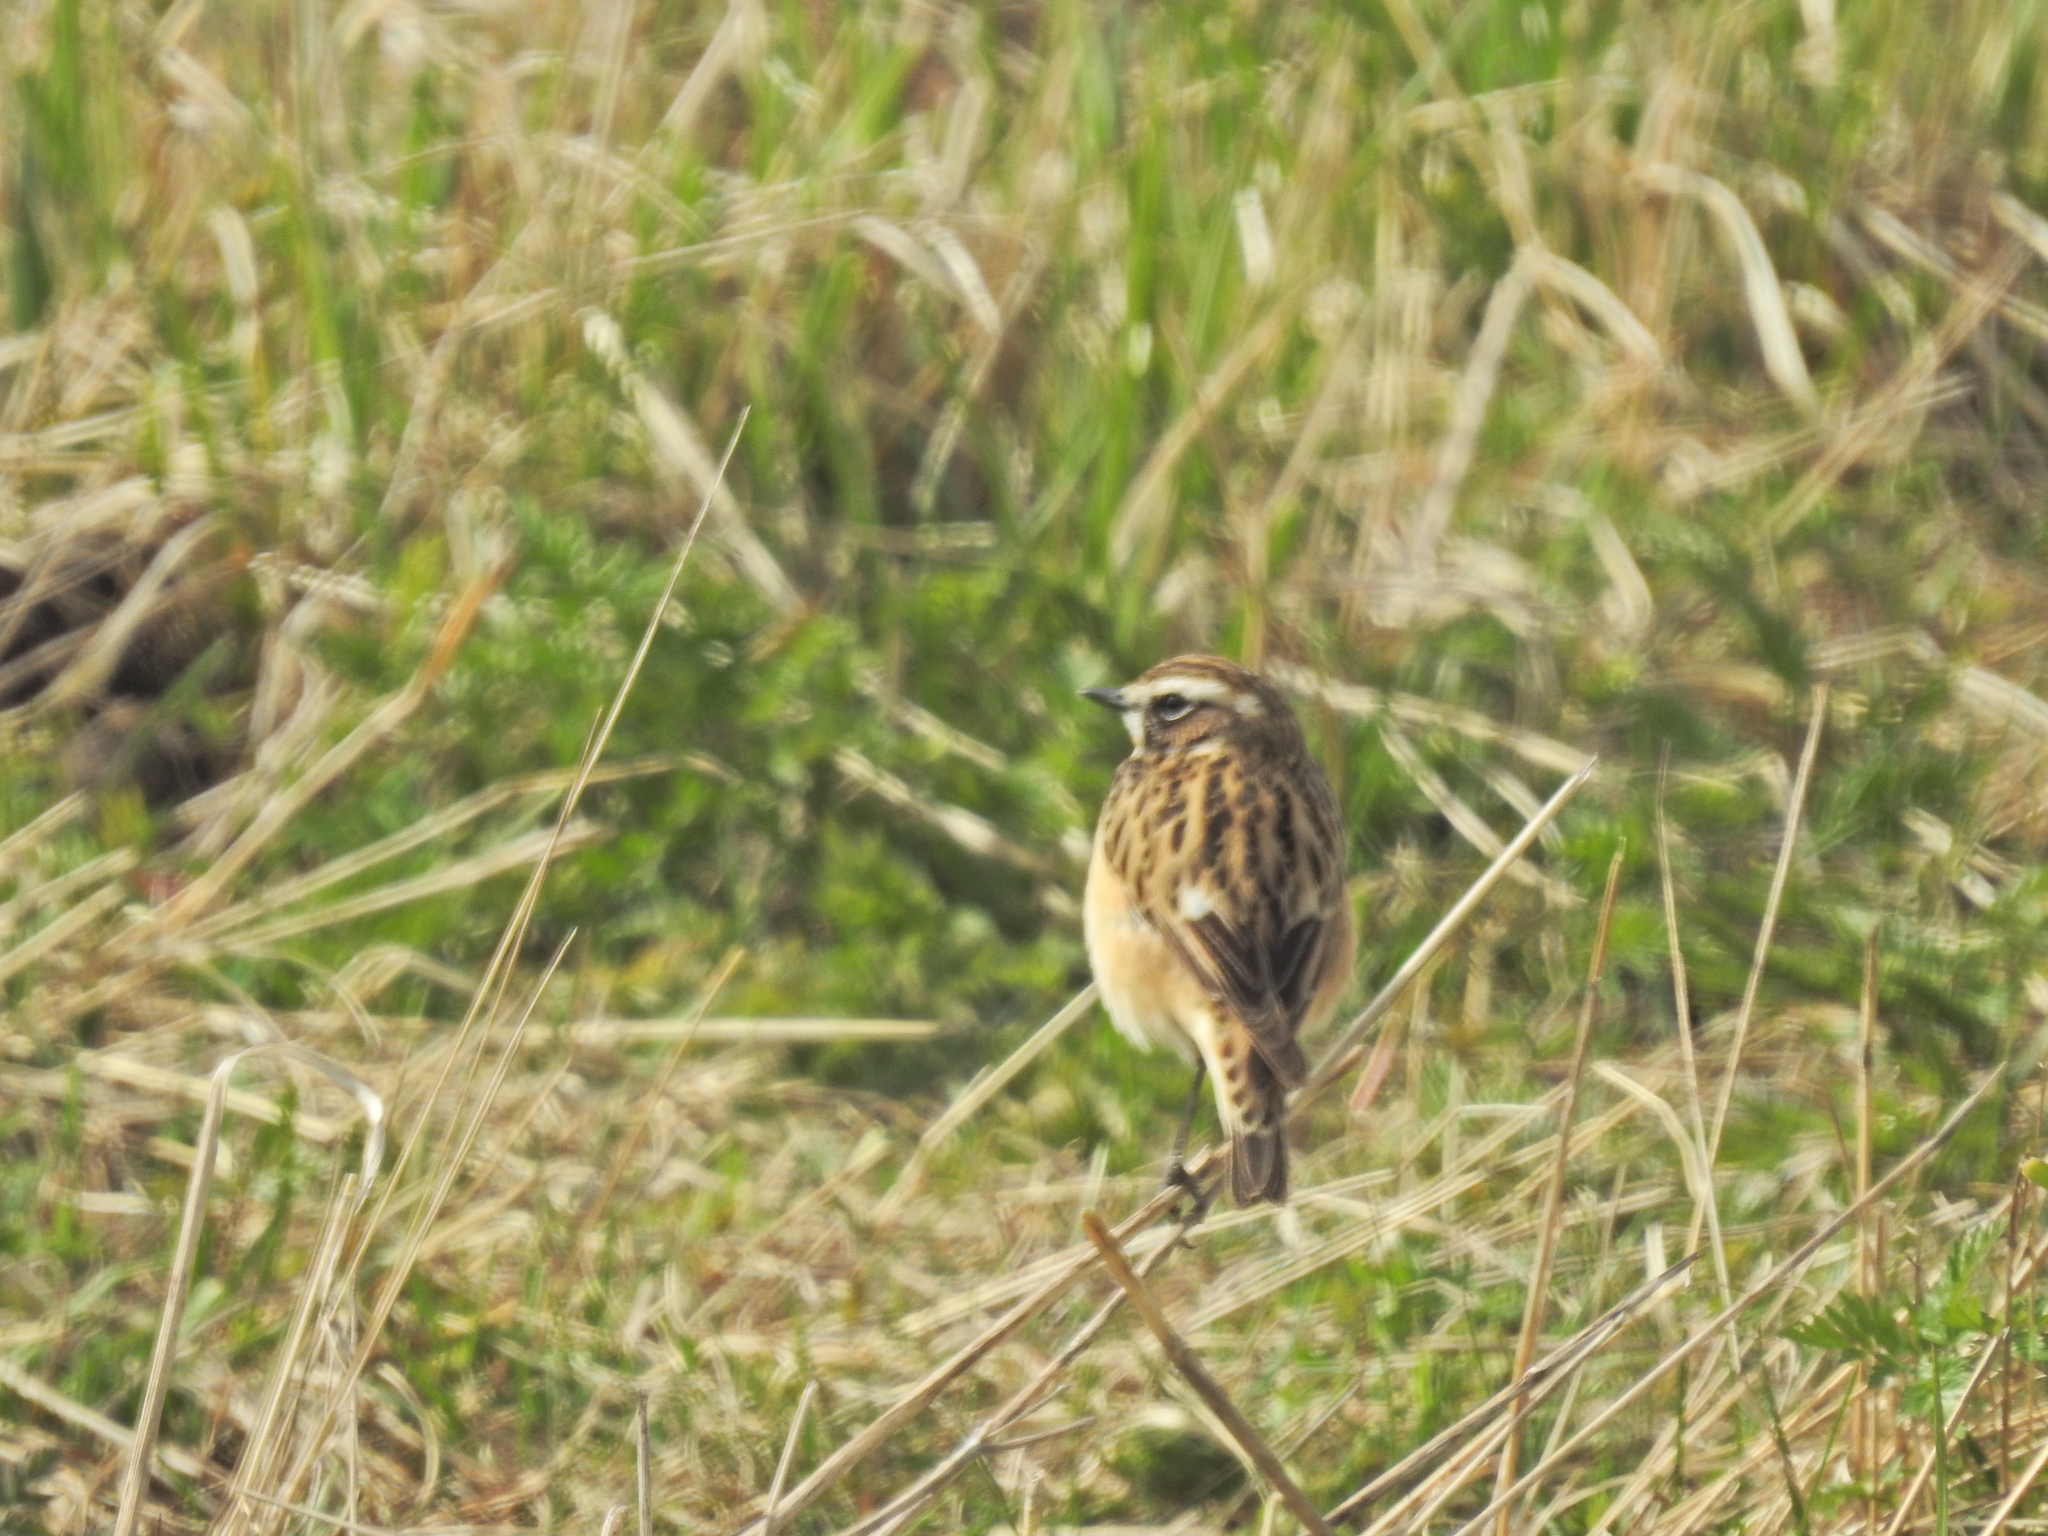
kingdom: Animalia
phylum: Chordata
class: Aves
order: Passeriformes
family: Muscicapidae
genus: Saxicola
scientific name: Saxicola rubetra
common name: Whinchat
